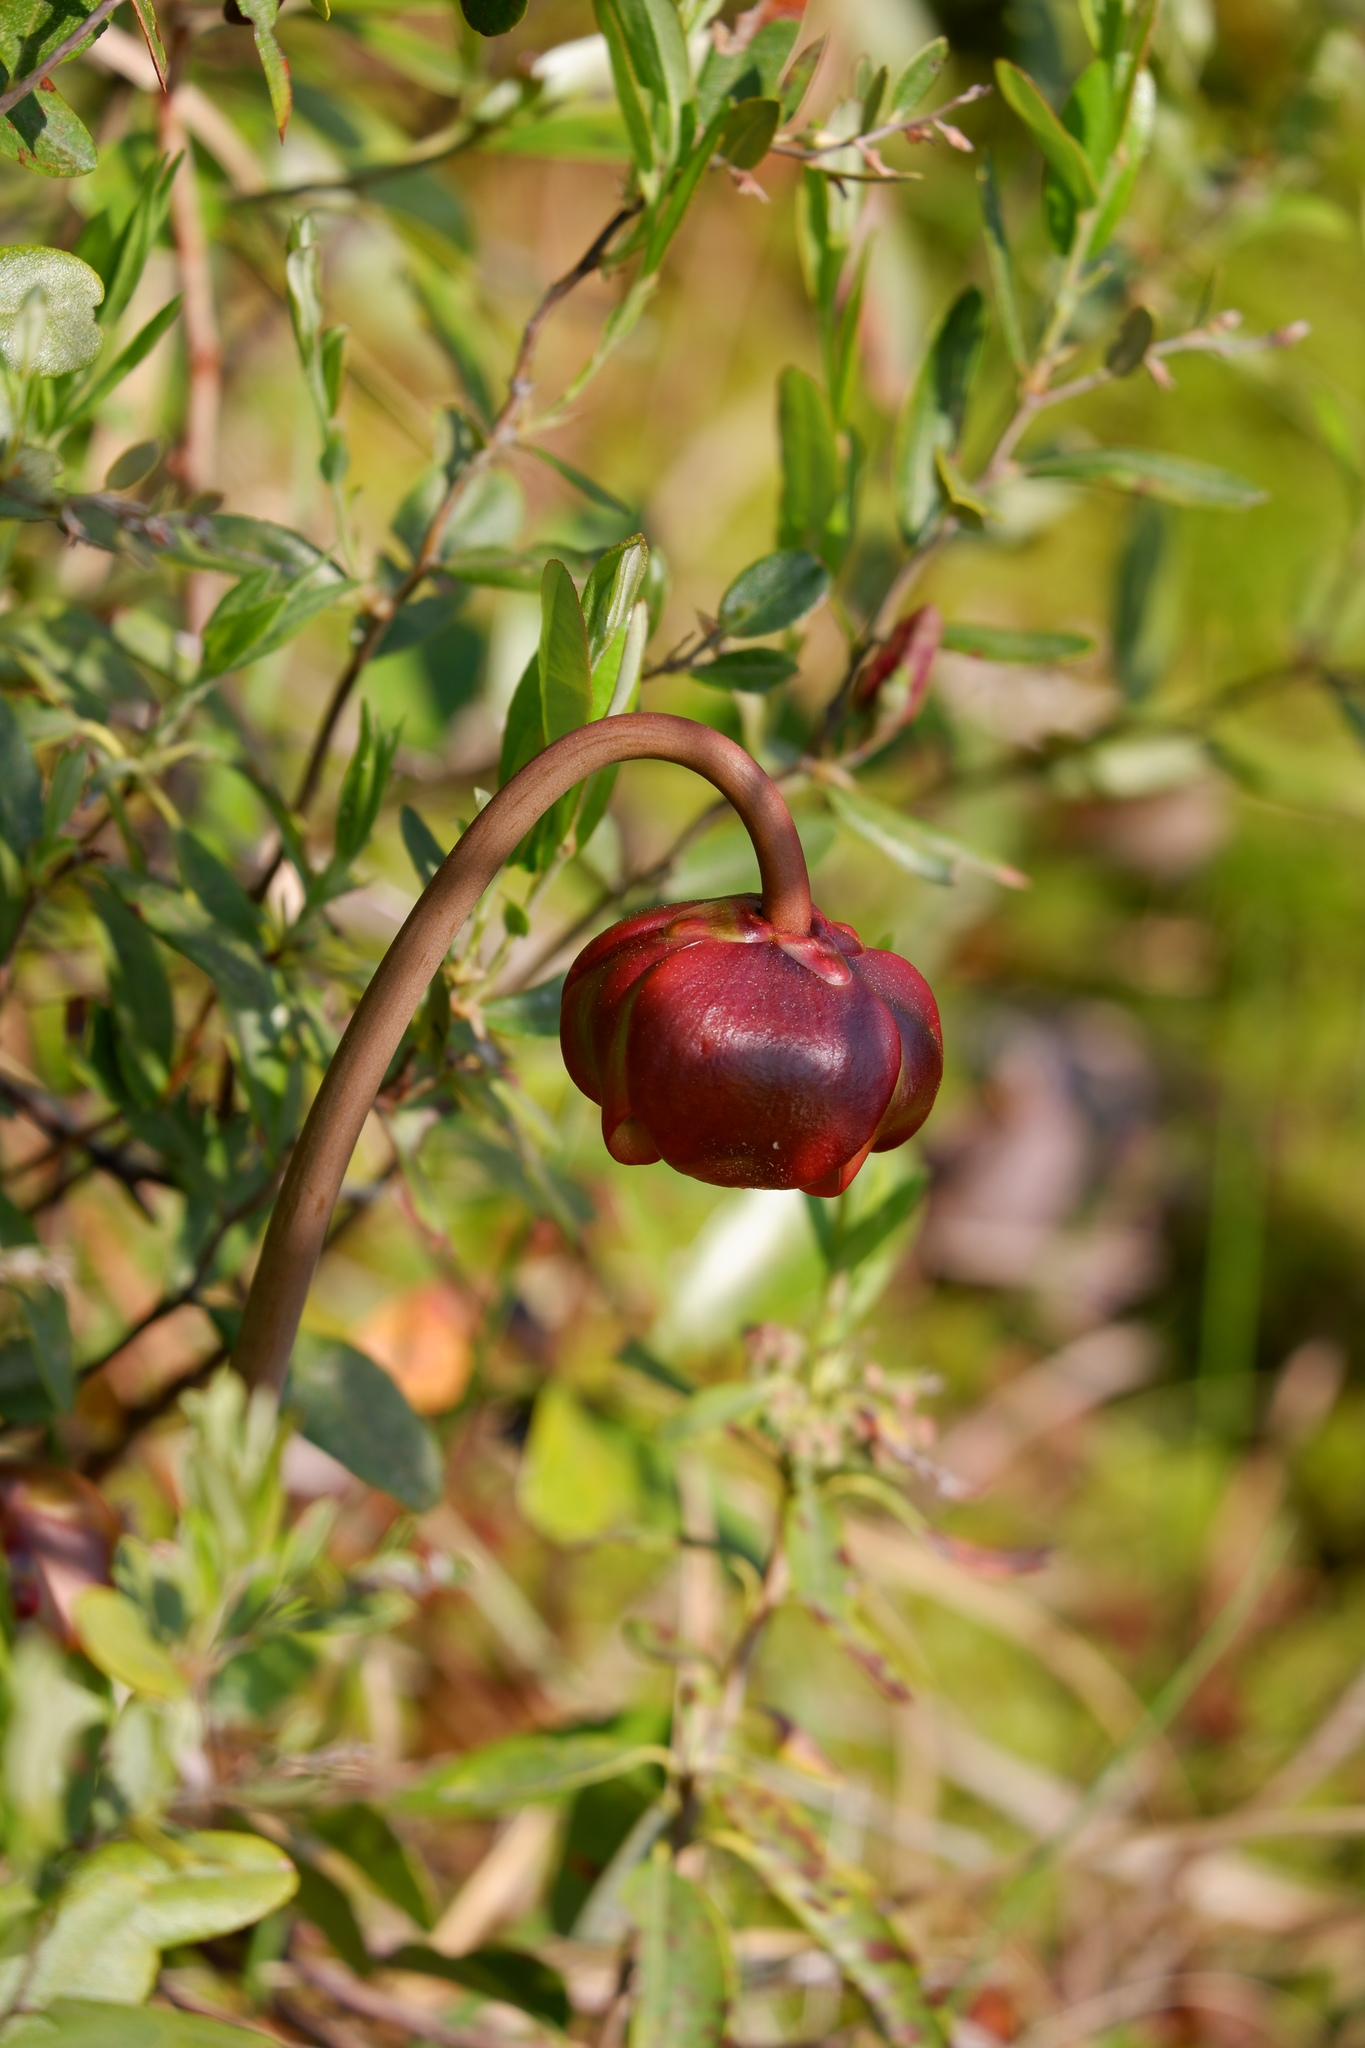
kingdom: Plantae
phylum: Tracheophyta
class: Magnoliopsida
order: Ericales
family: Sarraceniaceae
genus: Sarracenia
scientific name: Sarracenia purpurea
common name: Pitcherplant
